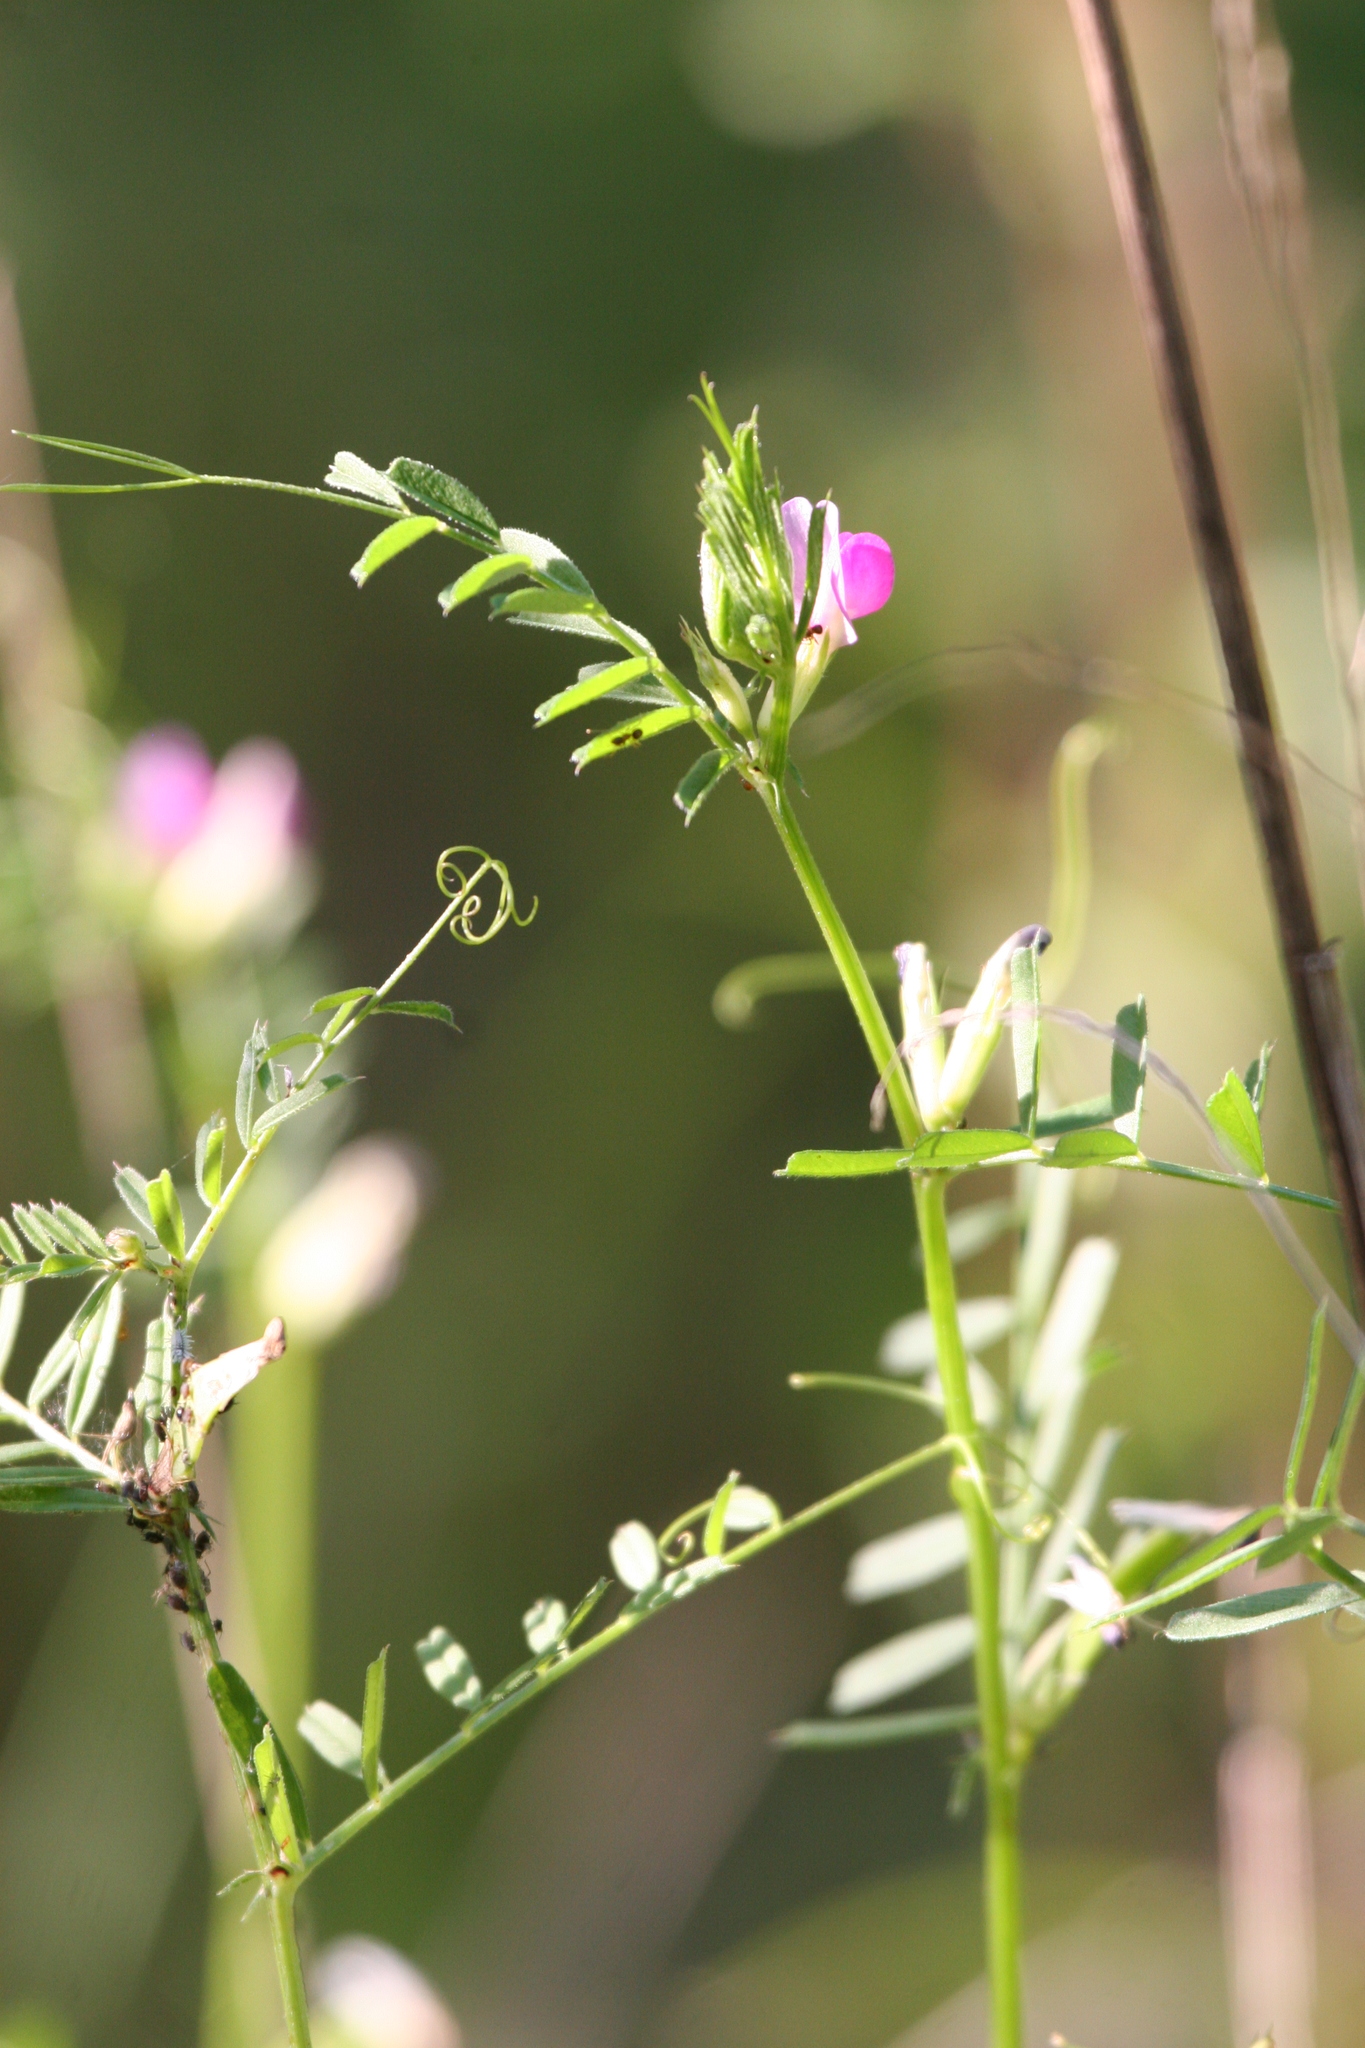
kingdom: Plantae
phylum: Tracheophyta
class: Magnoliopsida
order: Fabales
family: Fabaceae
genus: Vicia
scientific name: Vicia sativa
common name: Garden vetch
